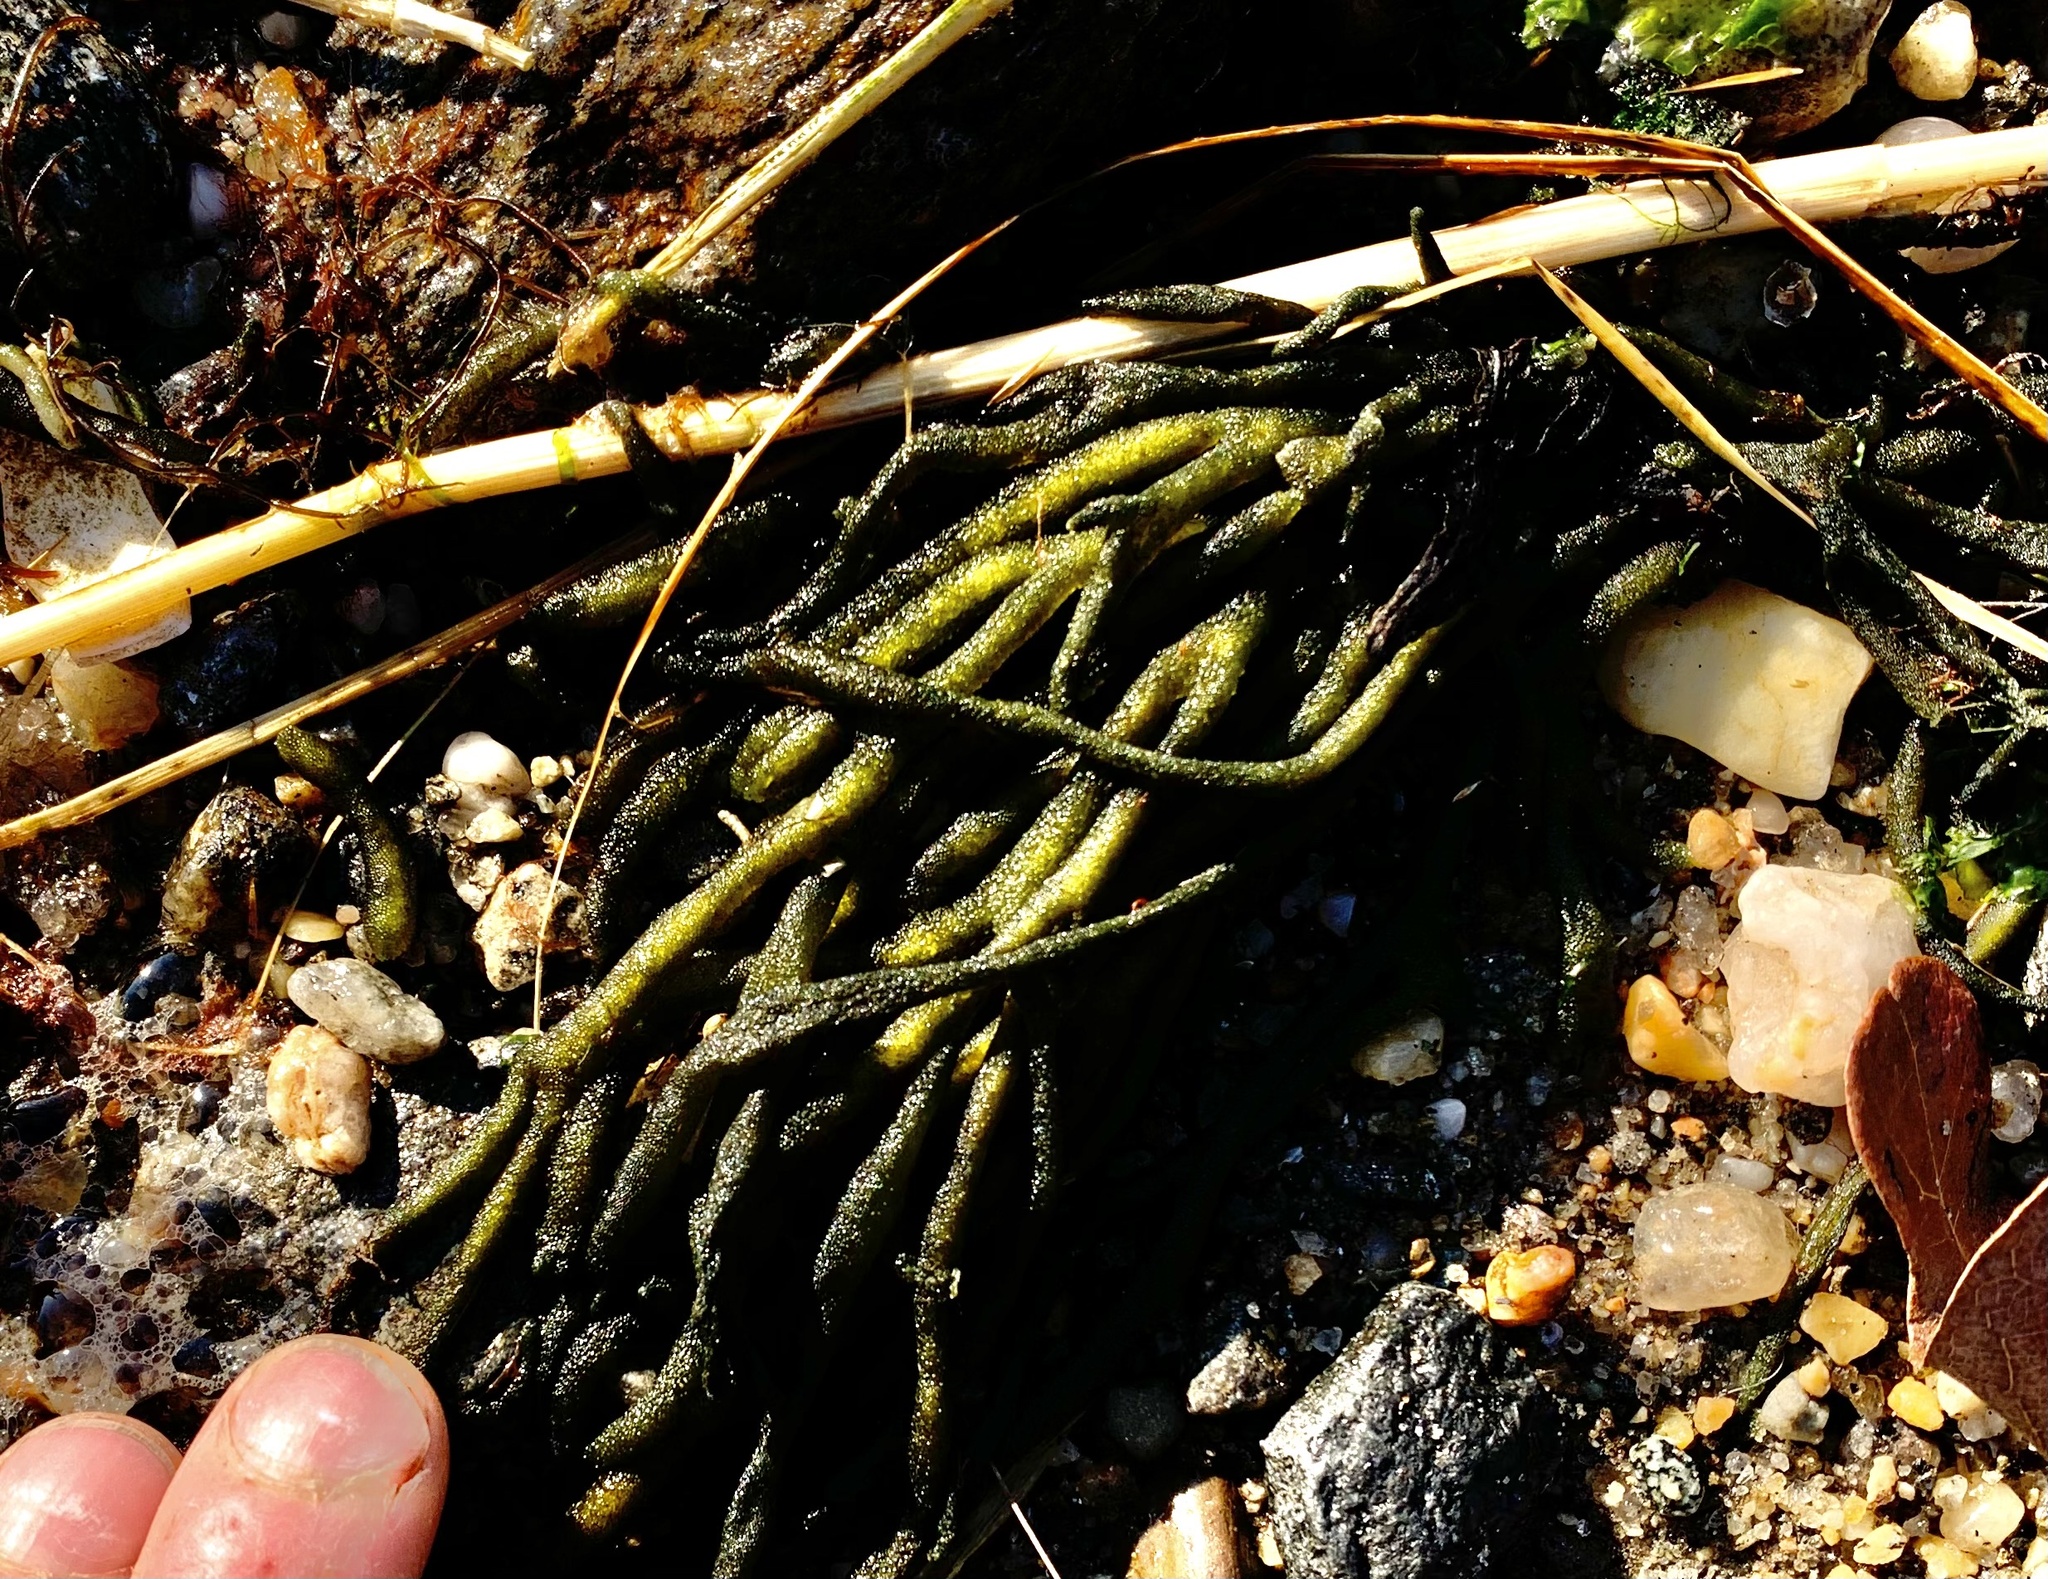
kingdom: Plantae
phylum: Chlorophyta
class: Ulvophyceae
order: Bryopsidales
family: Codiaceae
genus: Codium
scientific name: Codium fragile
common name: Dead man's fingers
